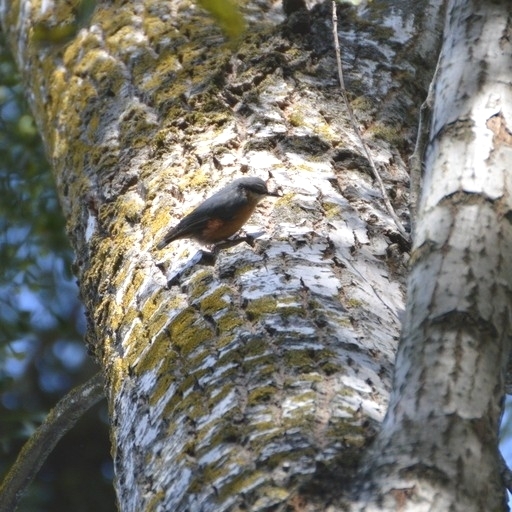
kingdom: Animalia
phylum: Chordata
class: Aves
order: Passeriformes
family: Sittidae
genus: Sitta
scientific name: Sitta europaea
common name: Eurasian nuthatch
